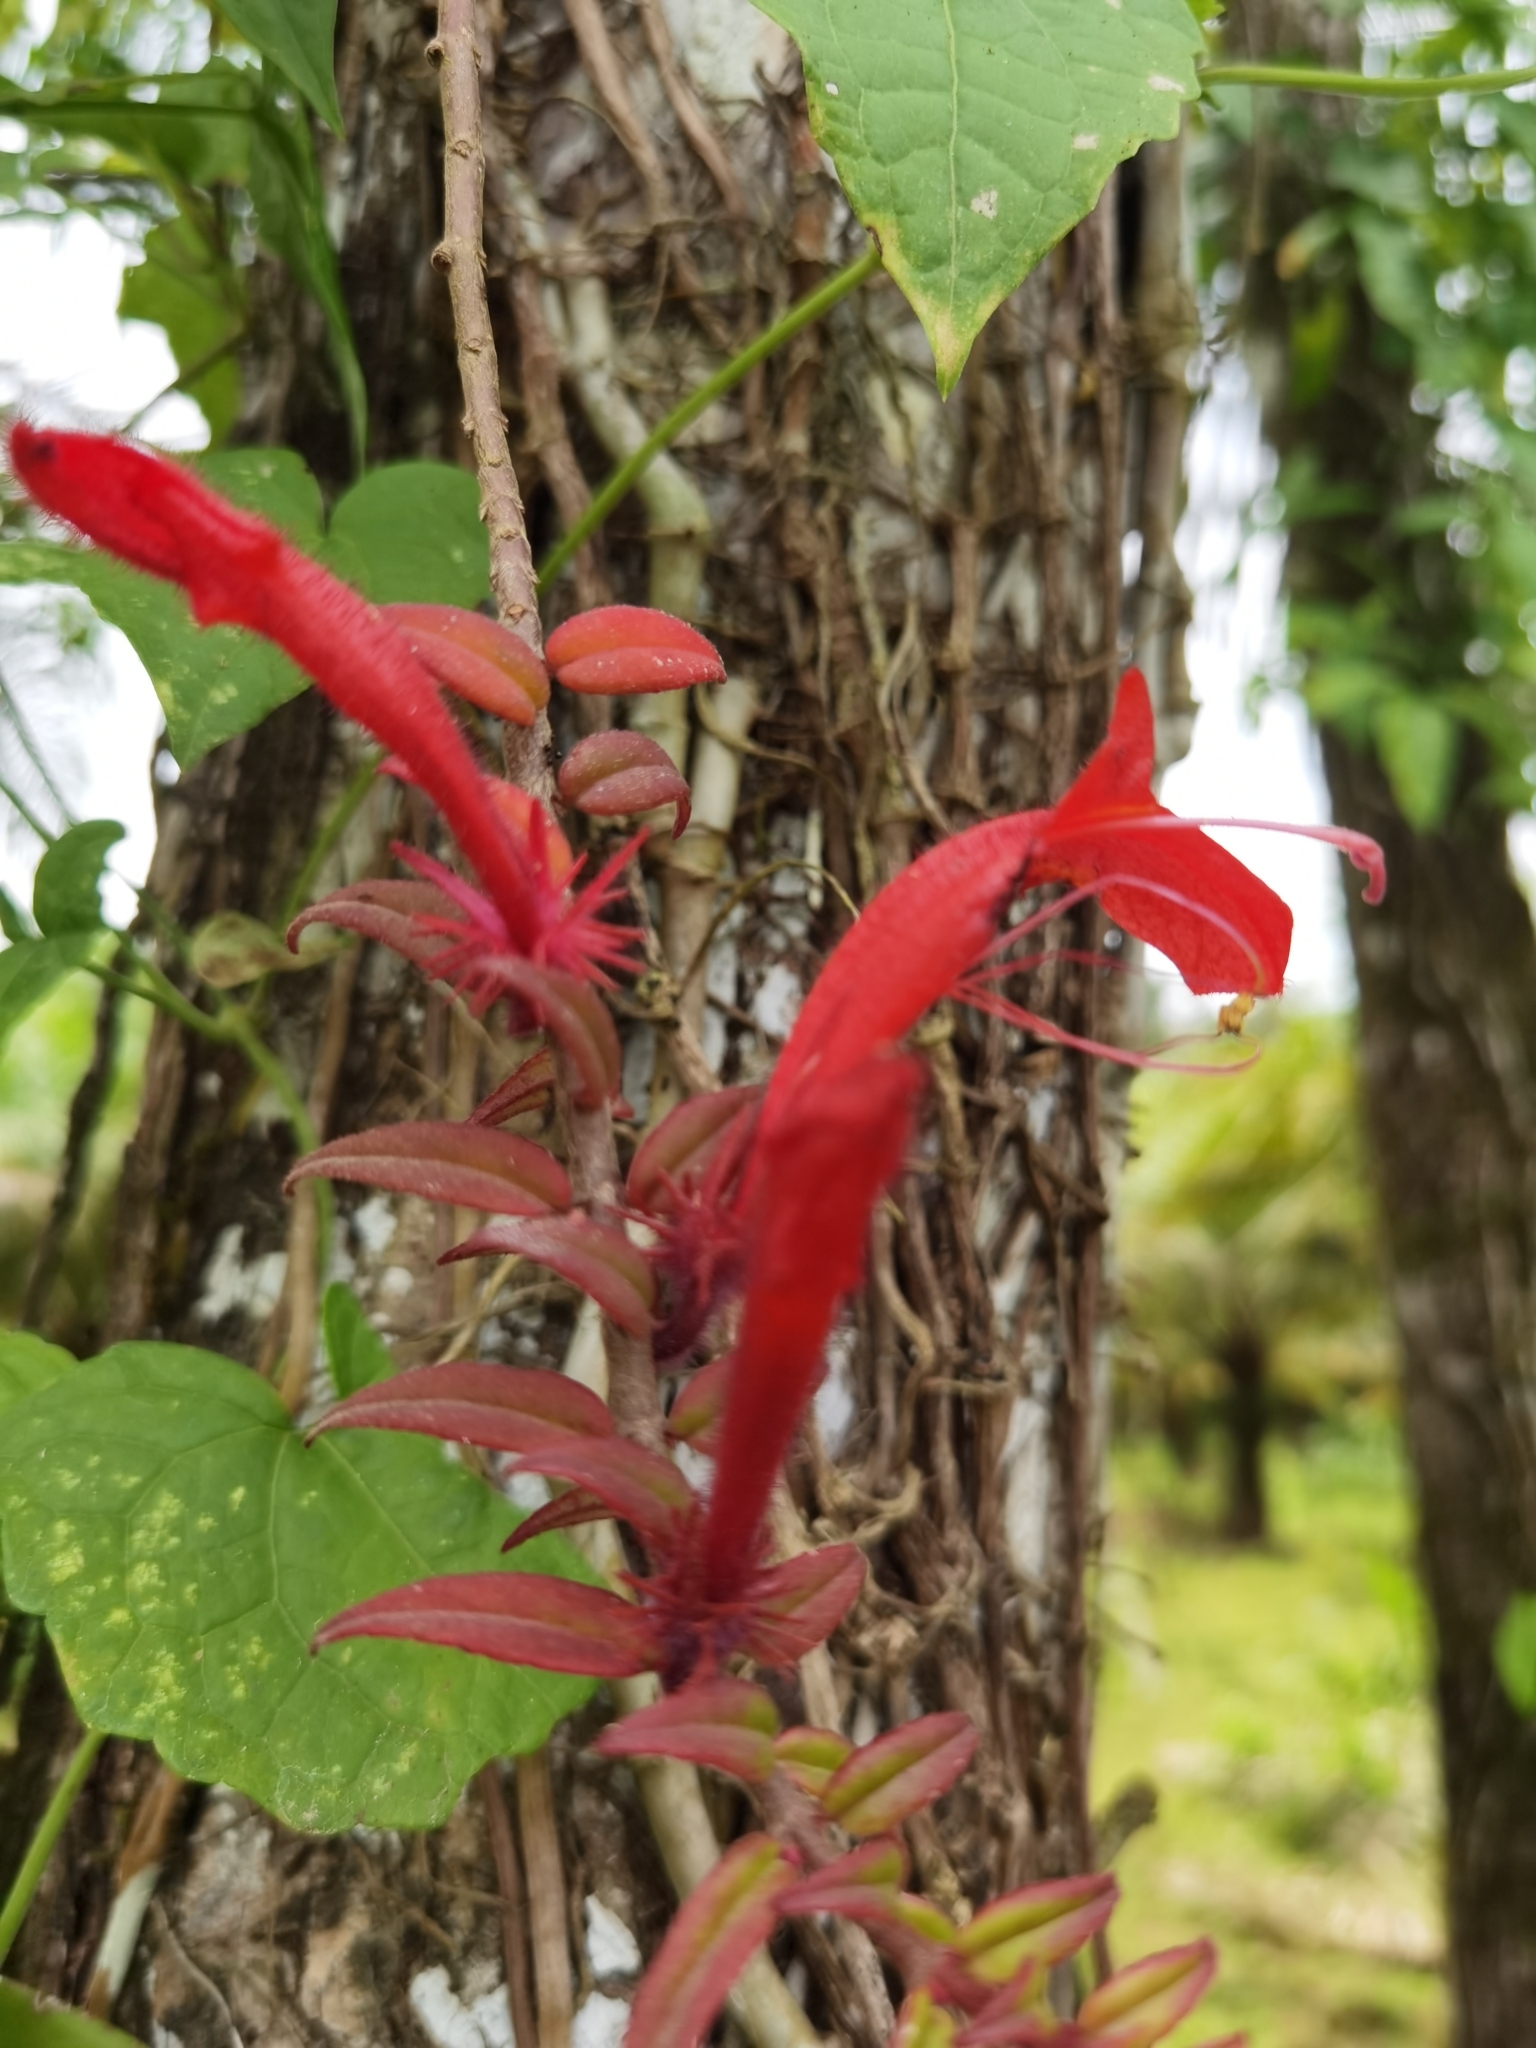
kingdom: Plantae
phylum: Tracheophyta
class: Magnoliopsida
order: Lamiales
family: Gesneriaceae
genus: Columnea
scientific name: Columnea flaccida
